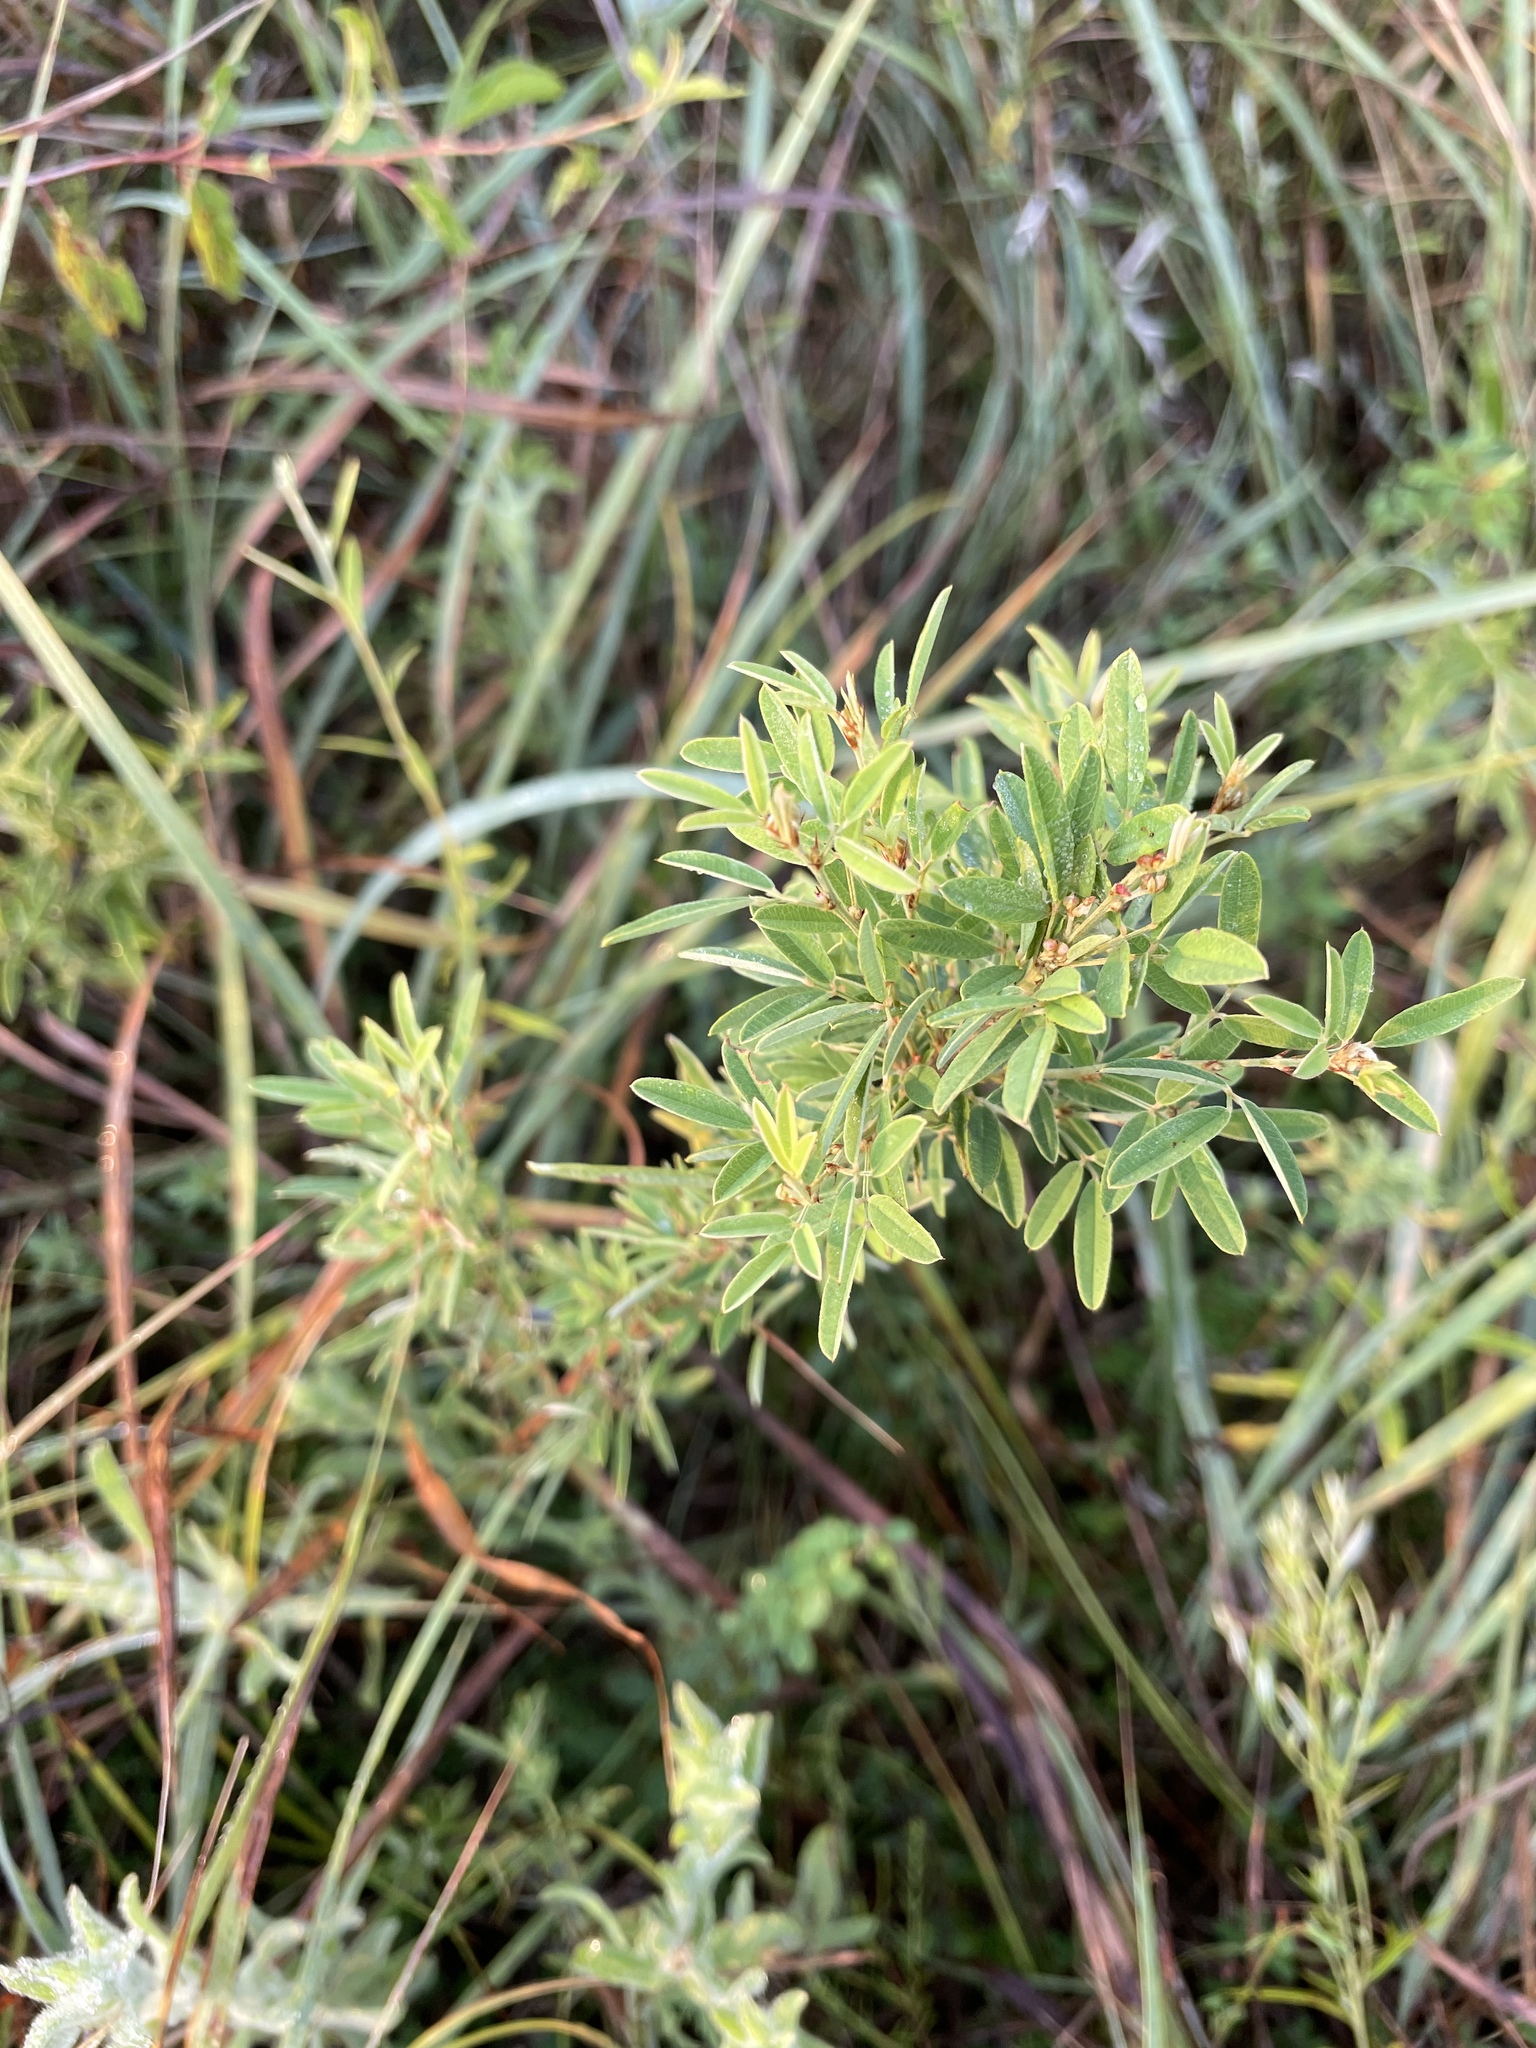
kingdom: Plantae
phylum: Tracheophyta
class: Magnoliopsida
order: Fabales
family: Fabaceae
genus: Lespedeza
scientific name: Lespedeza virginica
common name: Slender bush-clover
